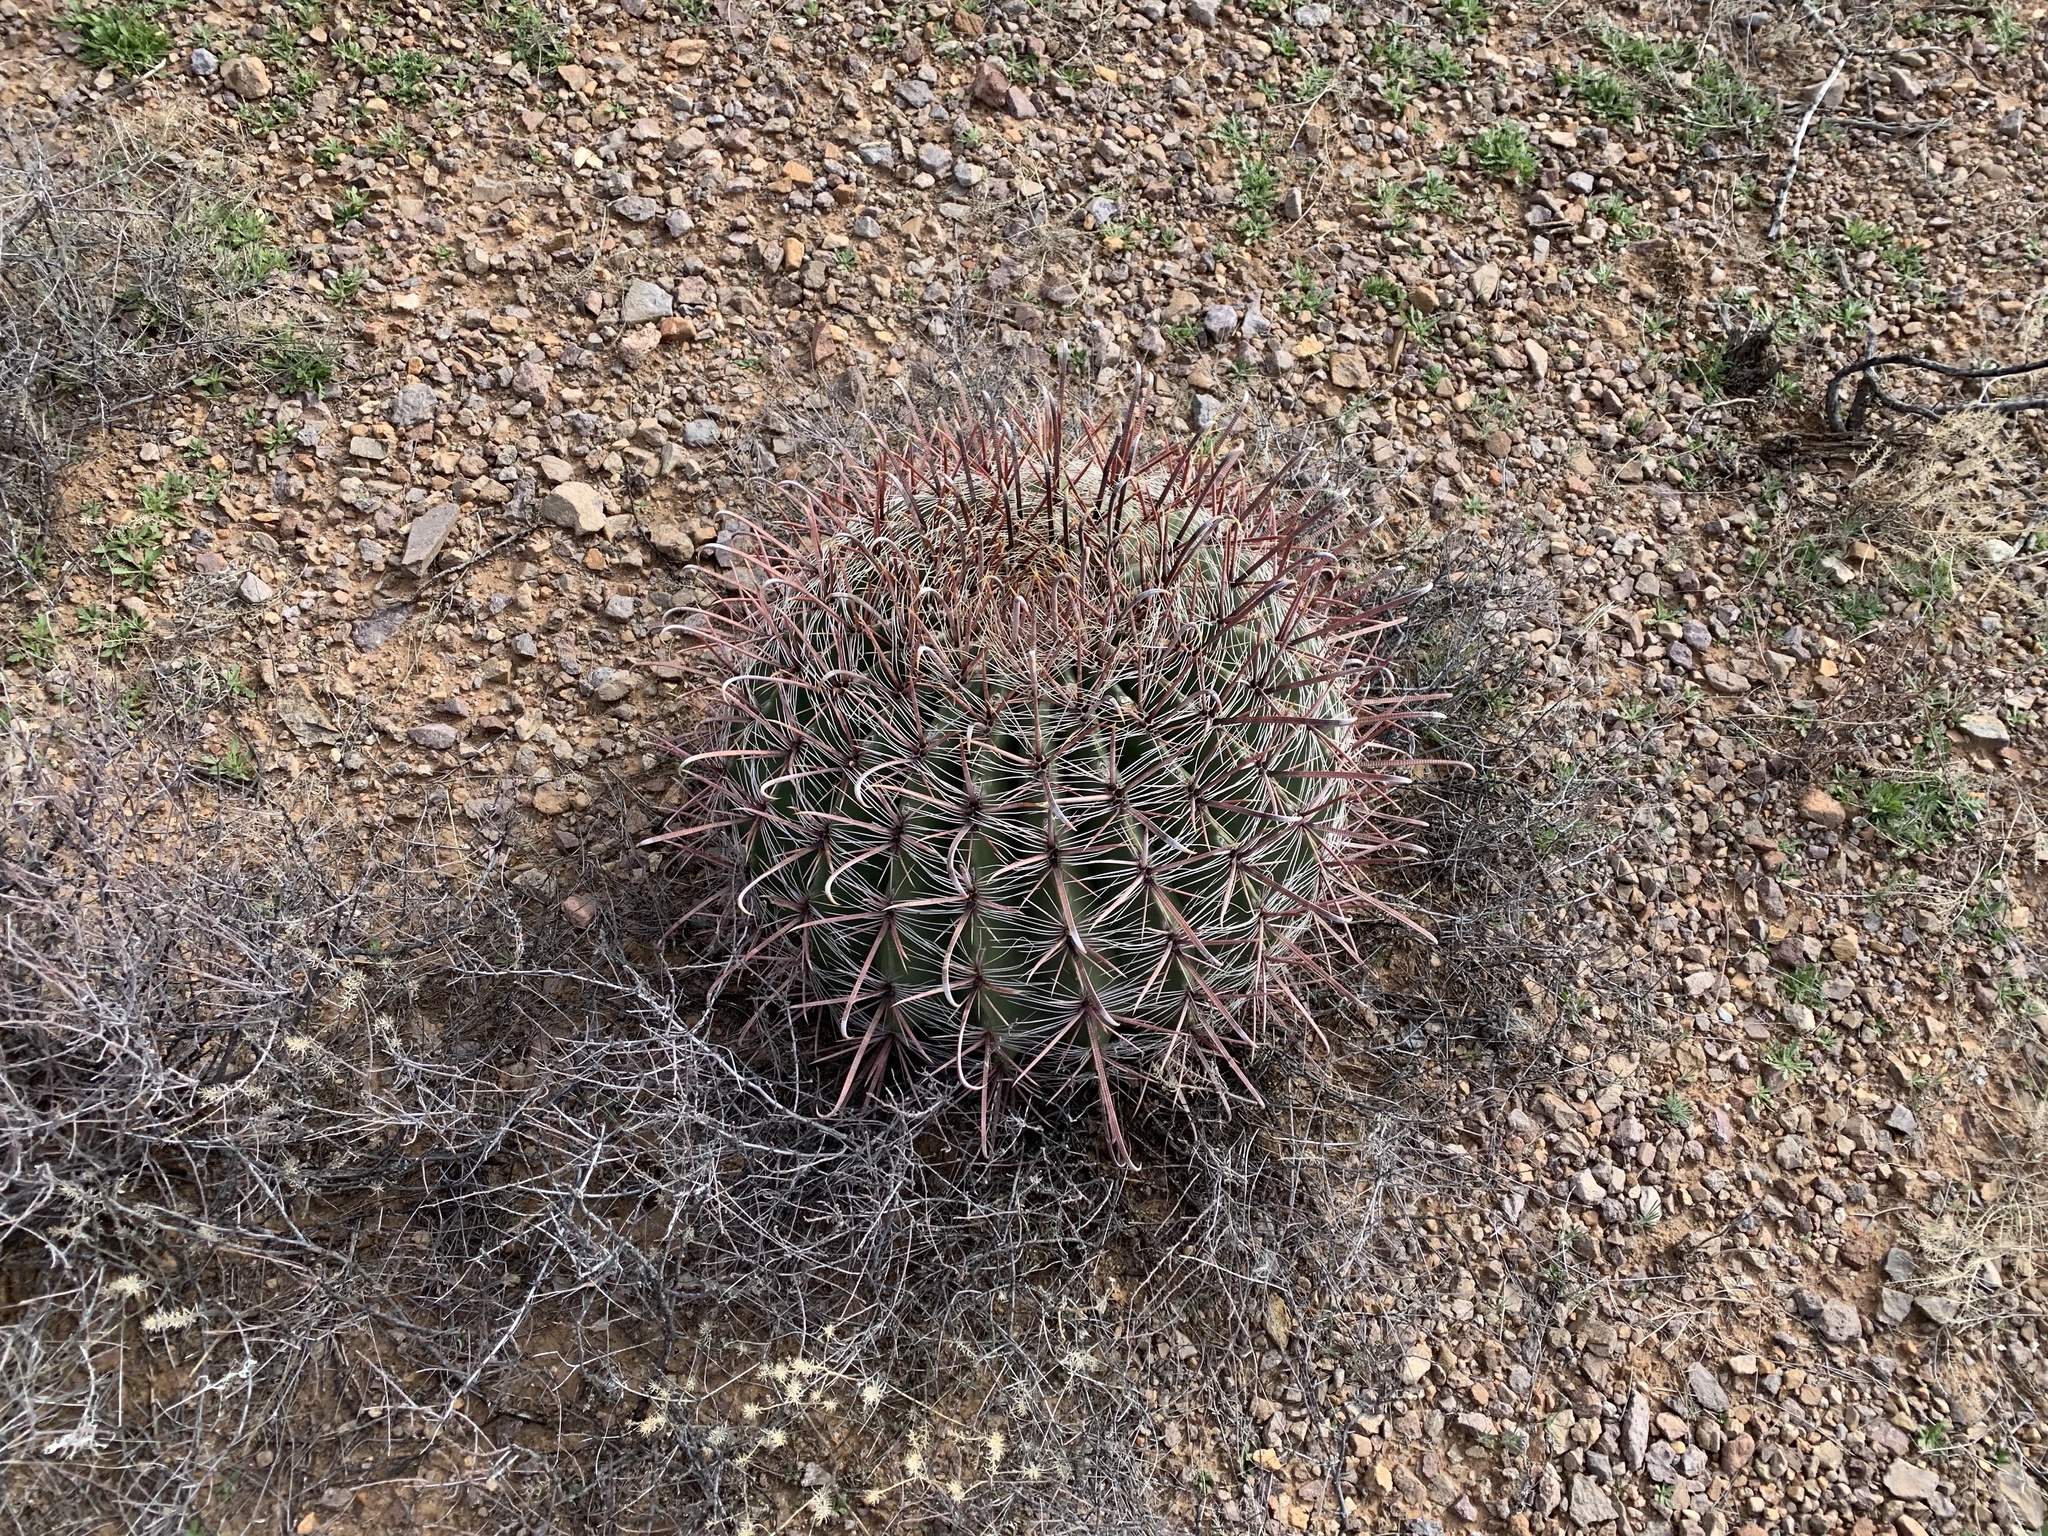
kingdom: Plantae
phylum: Tracheophyta
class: Magnoliopsida
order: Caryophyllales
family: Cactaceae
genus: Ferocactus
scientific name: Ferocactus wislizeni
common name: Candy barrel cactus
